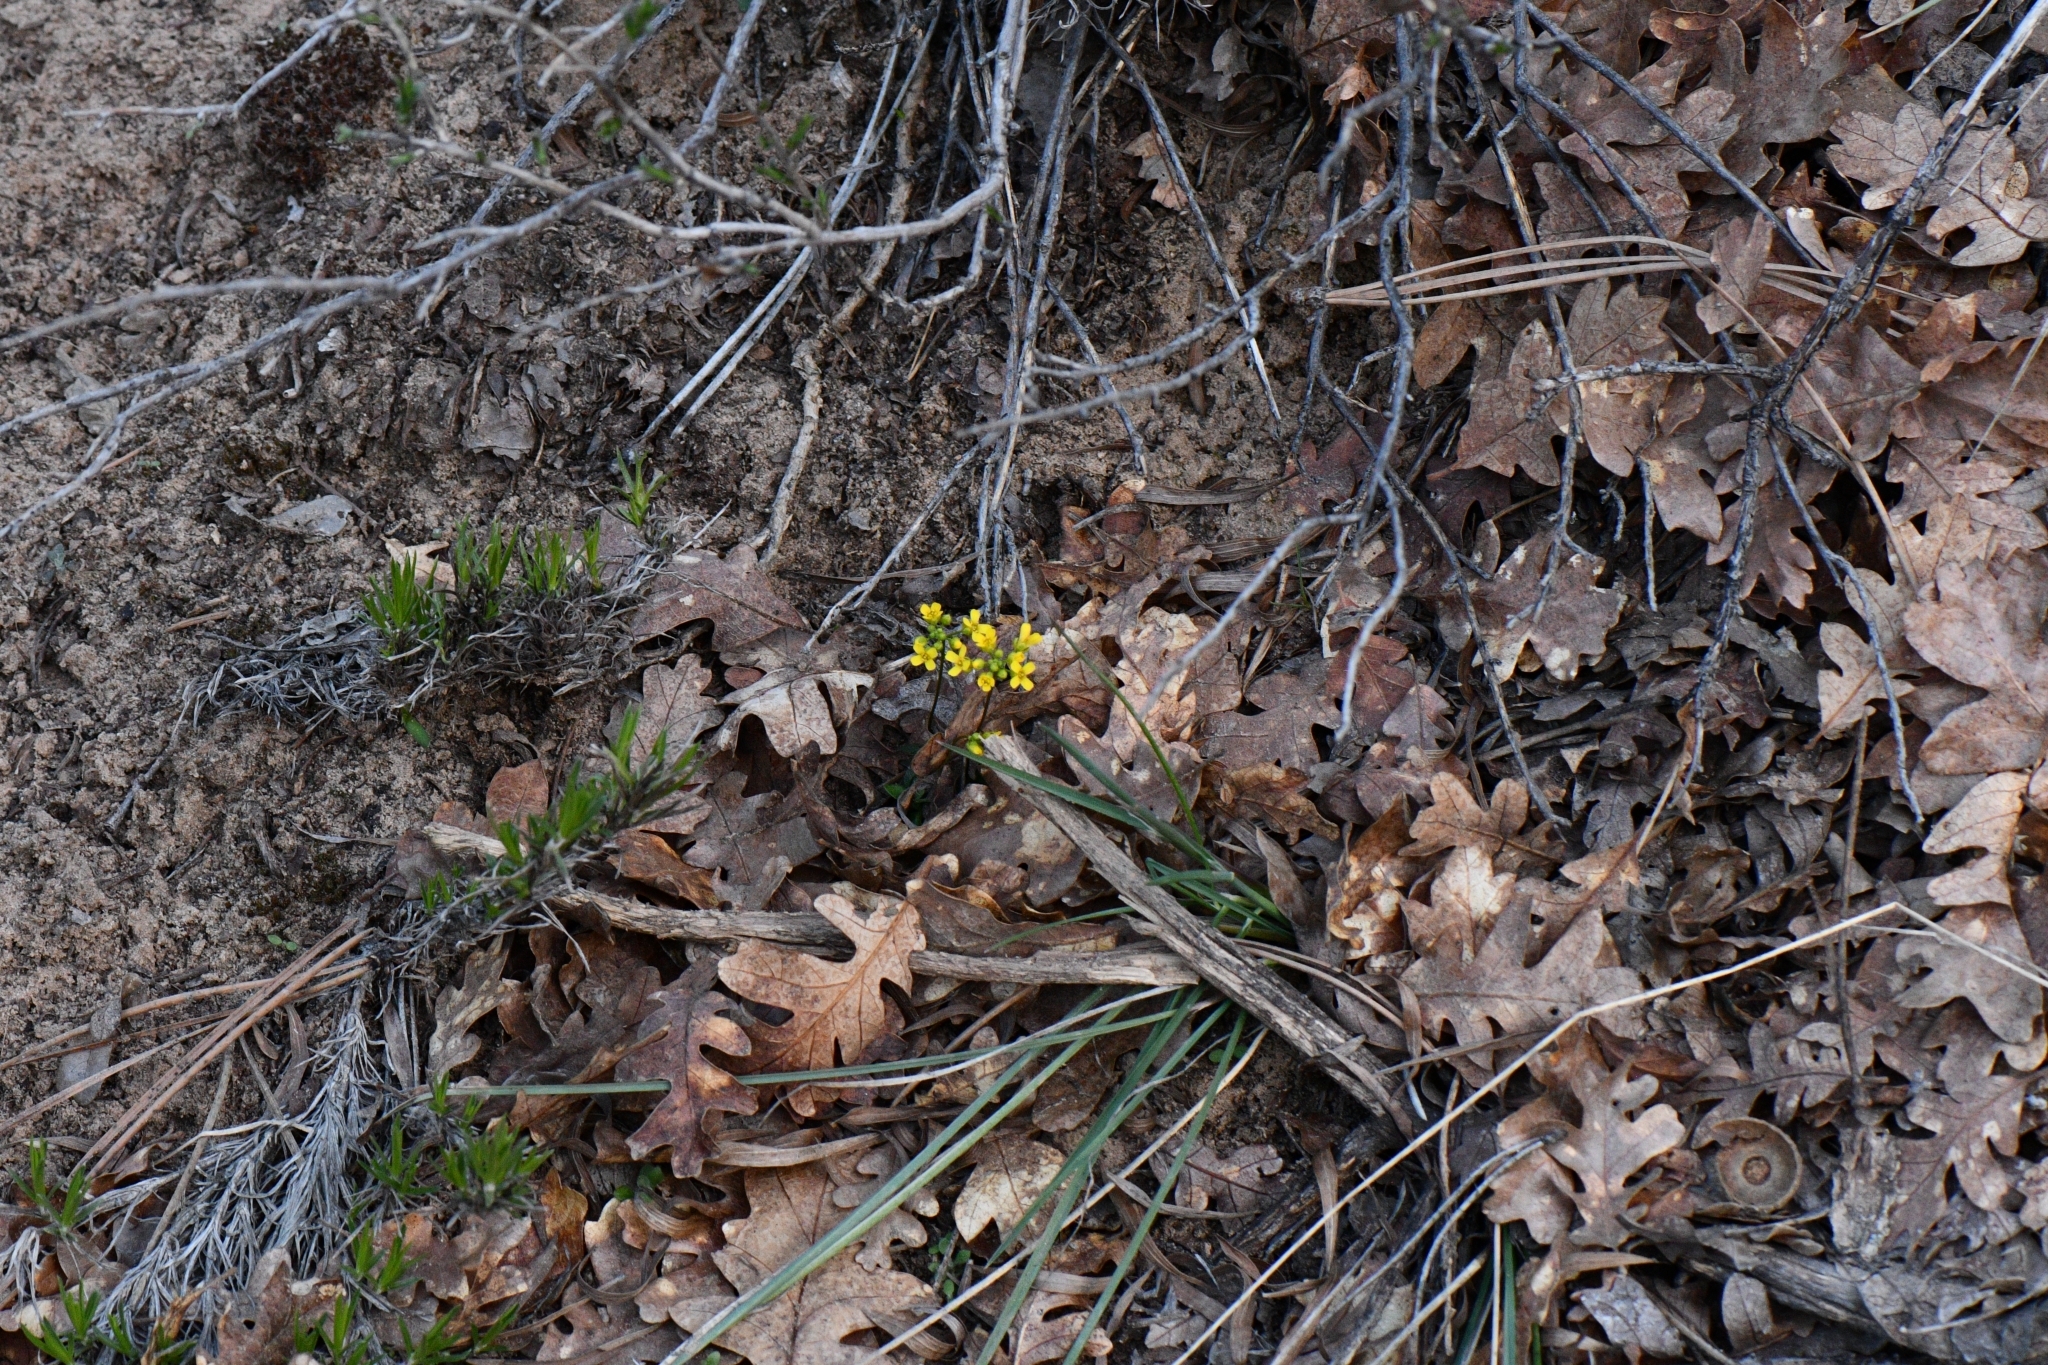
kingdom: Plantae
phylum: Tracheophyta
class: Magnoliopsida
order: Brassicales
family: Brassicaceae
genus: Draba
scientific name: Draba zionensis
